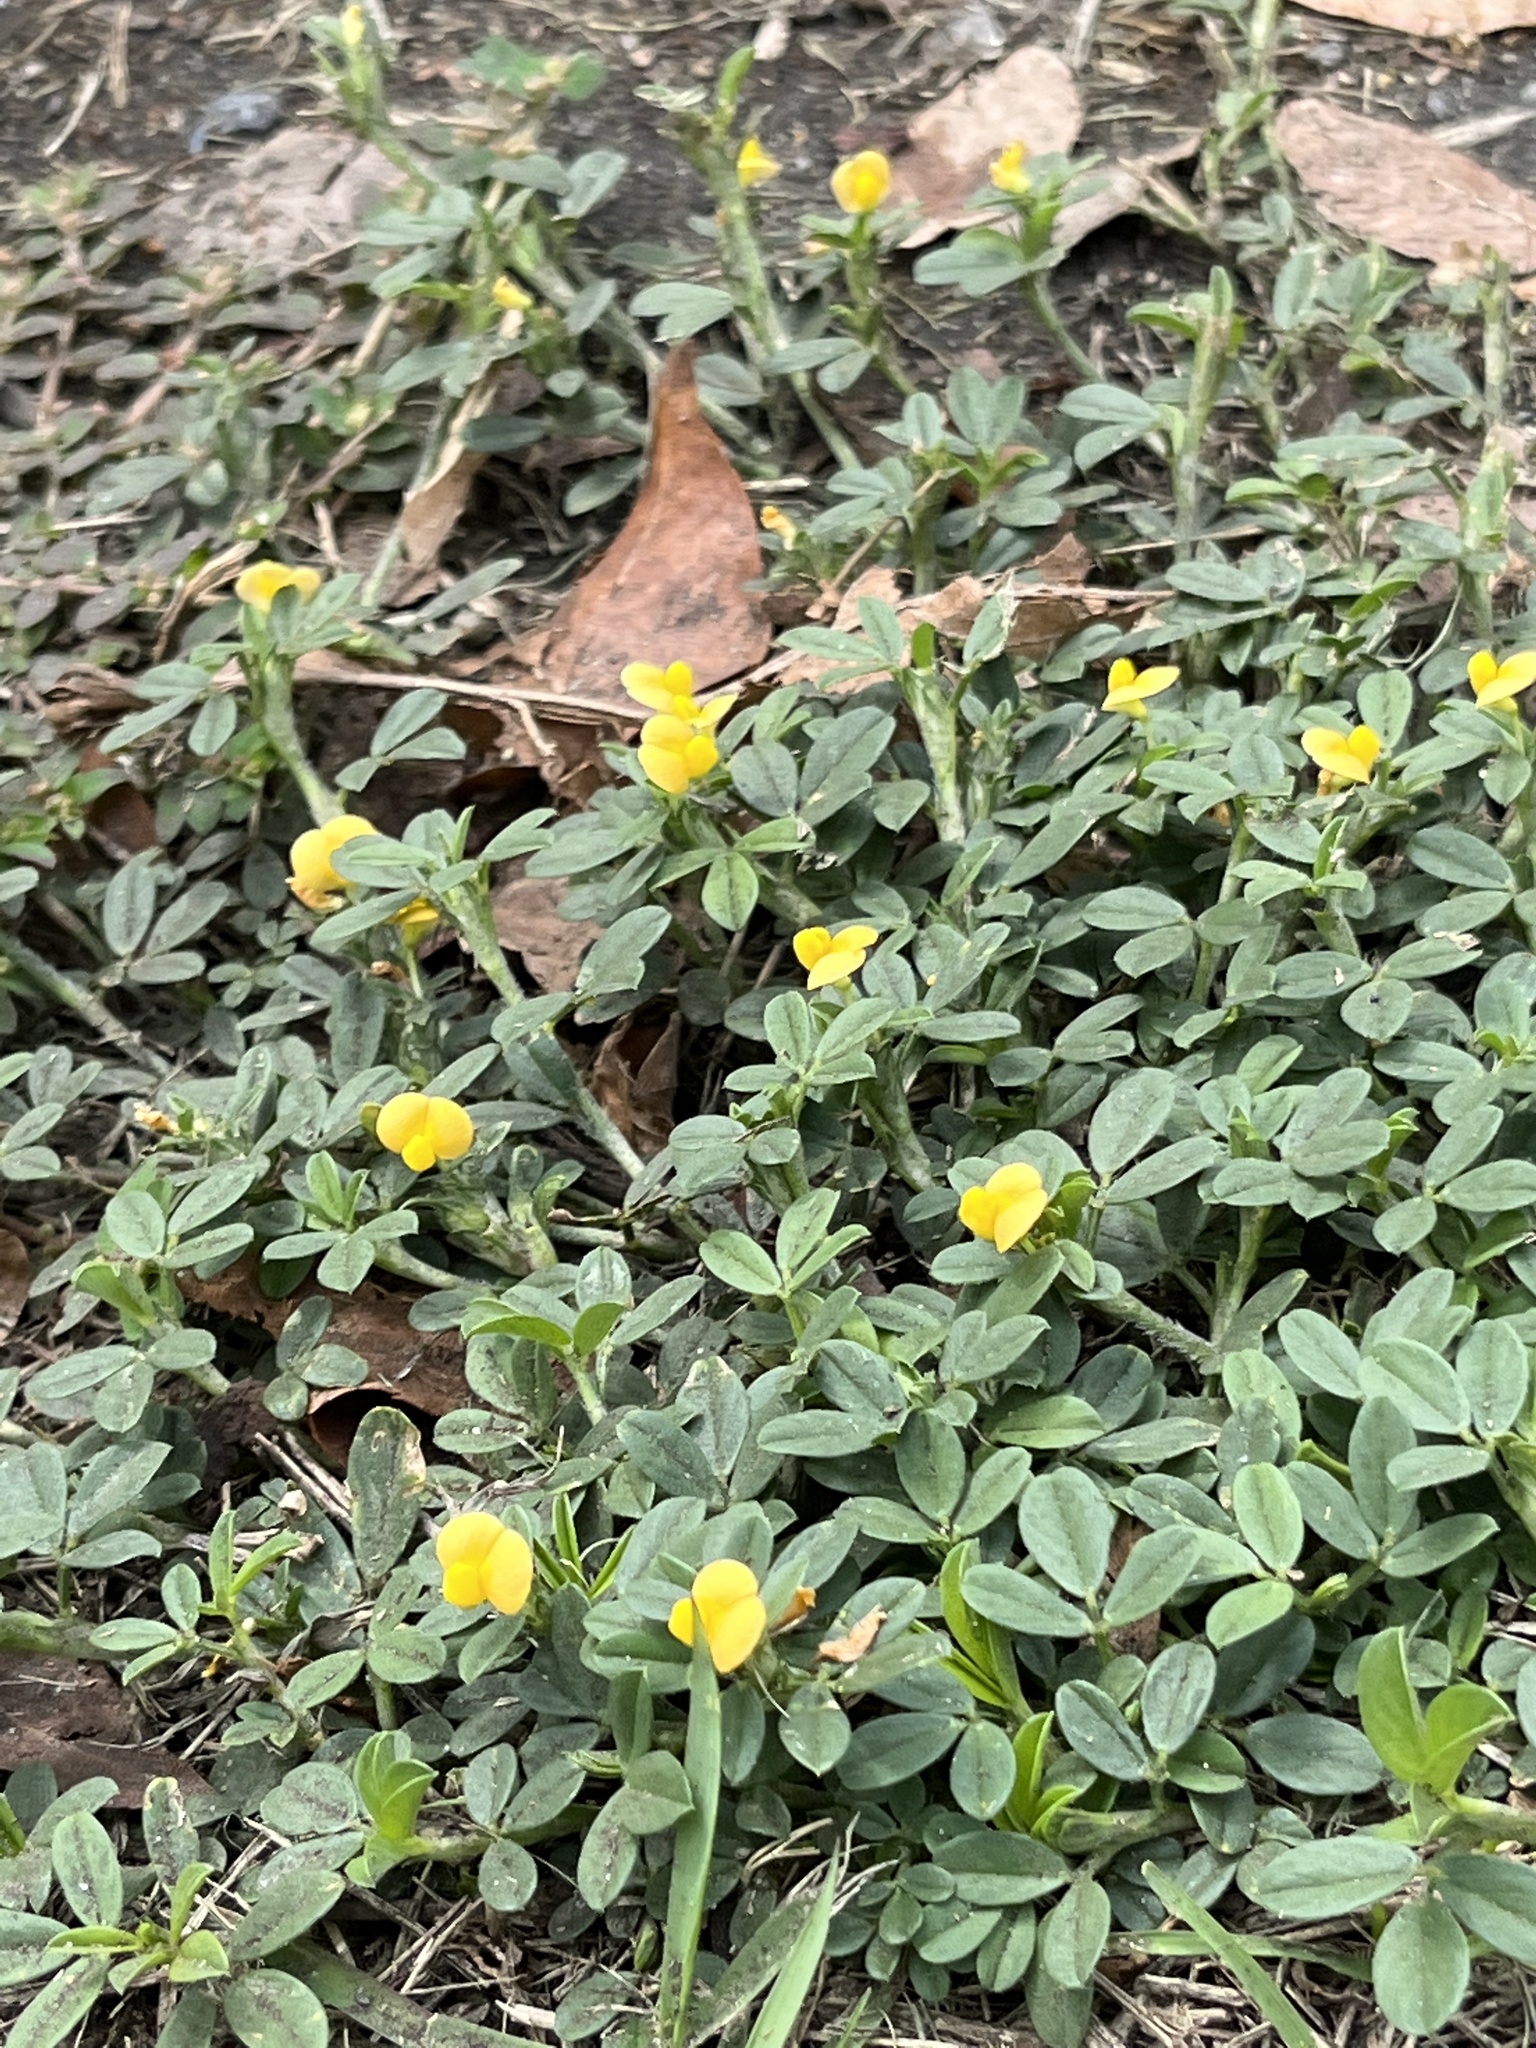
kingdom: Plantae
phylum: Tracheophyta
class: Magnoliopsida
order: Fabales
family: Fabaceae
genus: Stylosanthes
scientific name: Stylosanthes hamata
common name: Cheesytoes
